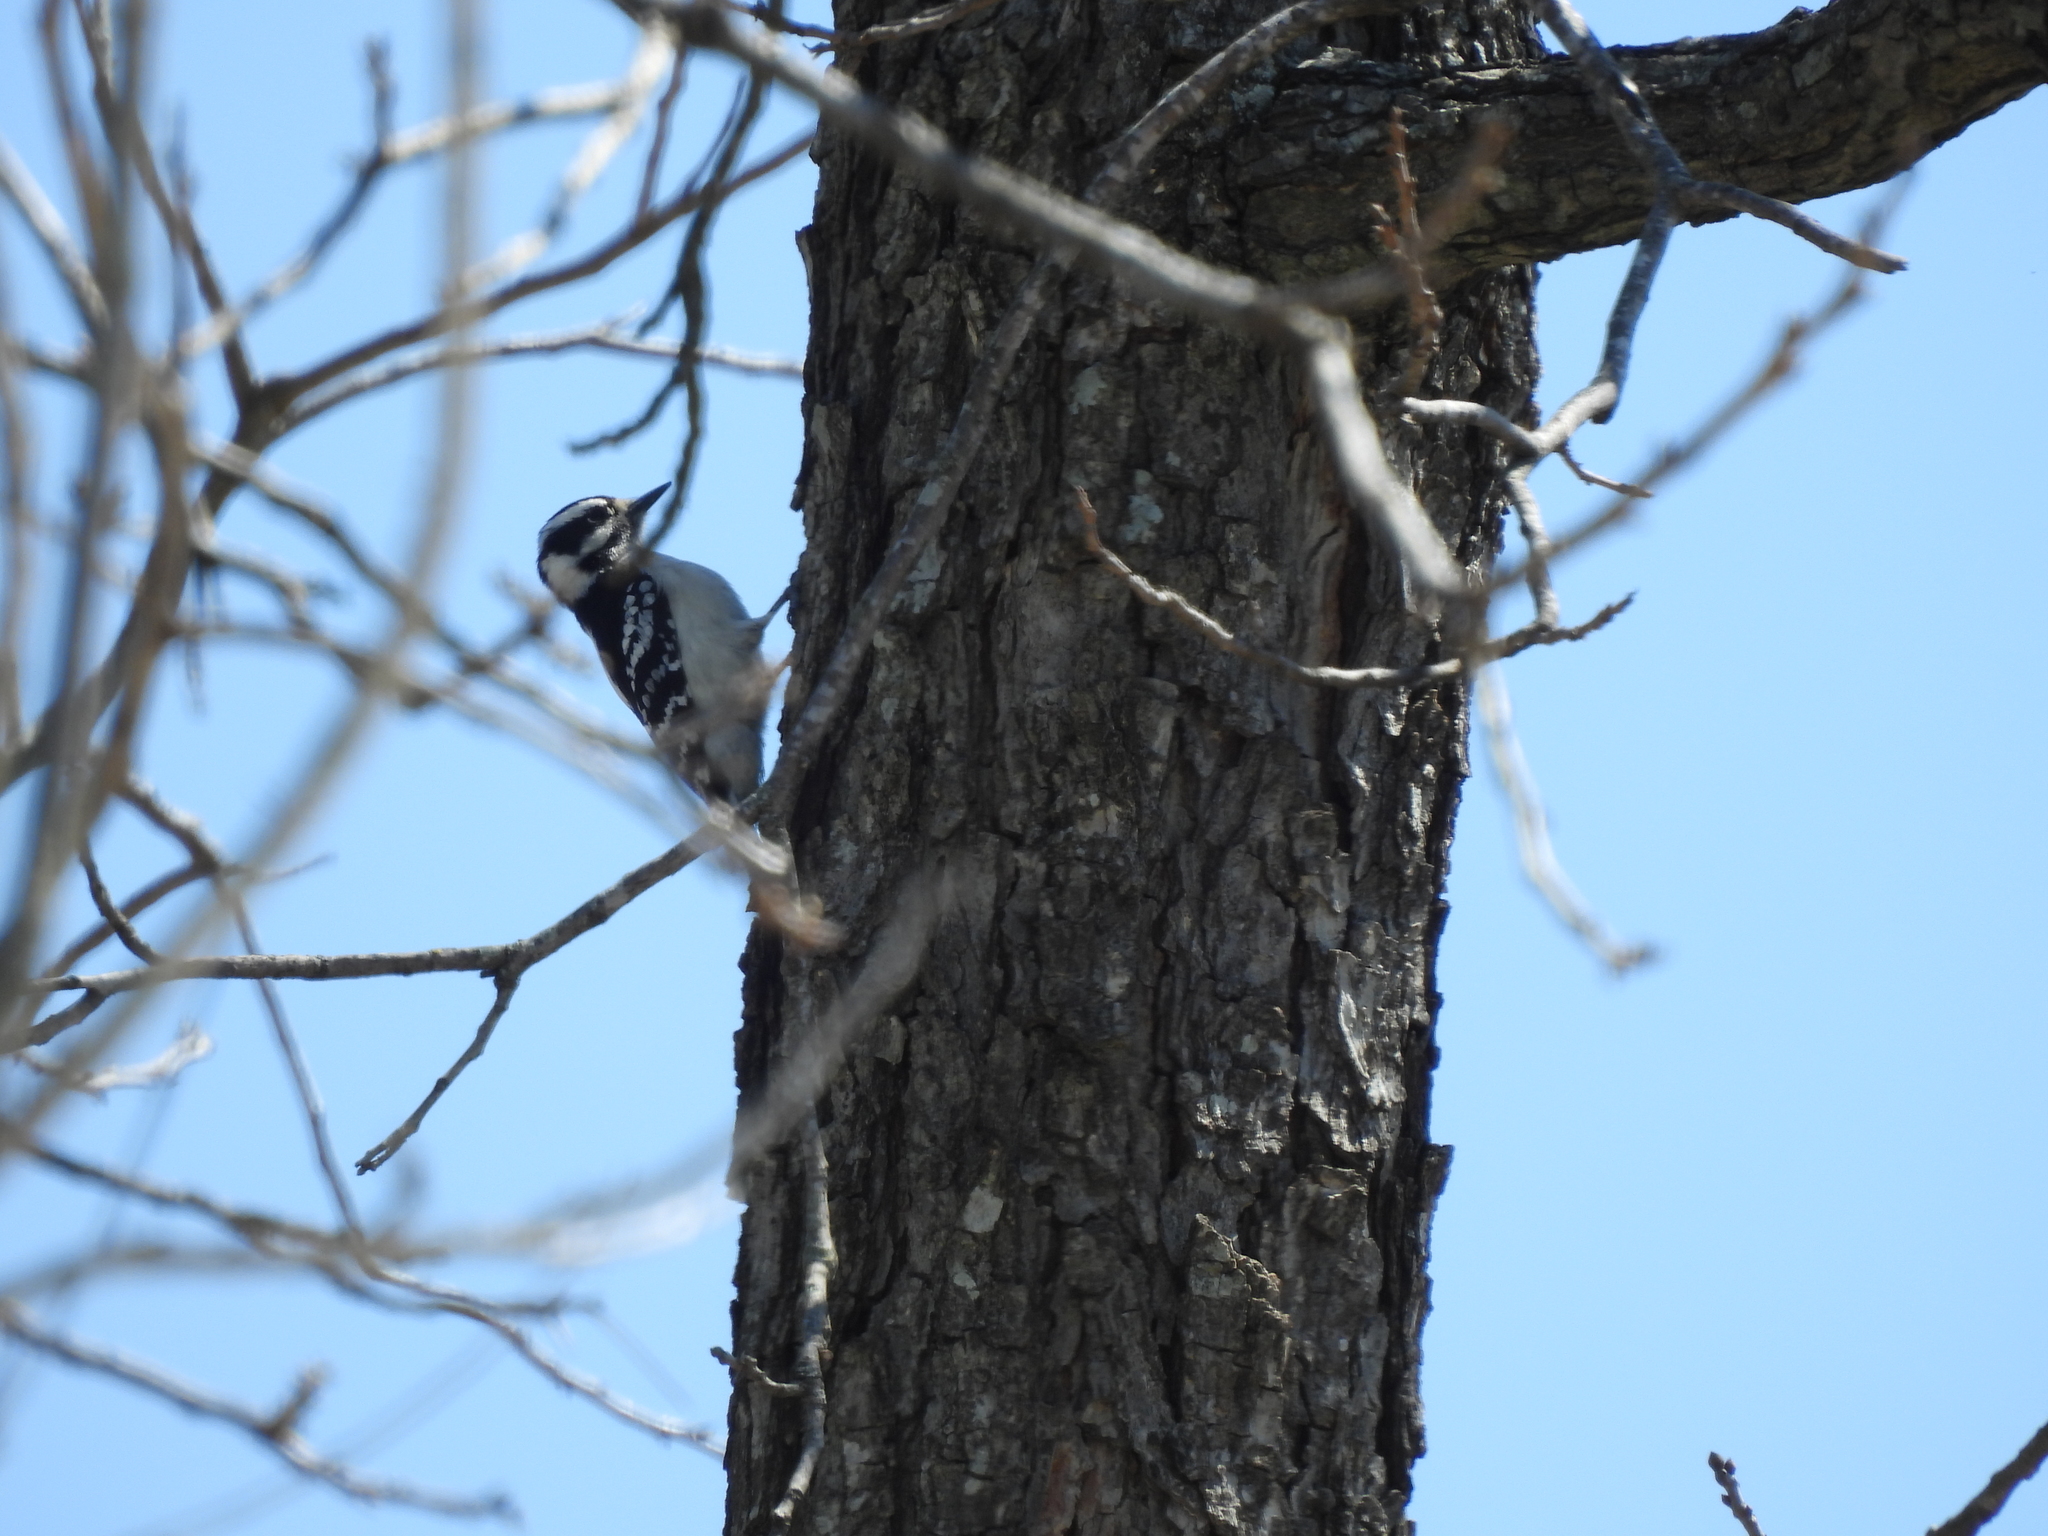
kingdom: Animalia
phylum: Chordata
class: Aves
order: Piciformes
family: Picidae
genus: Dryobates
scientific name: Dryobates pubescens
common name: Downy woodpecker
